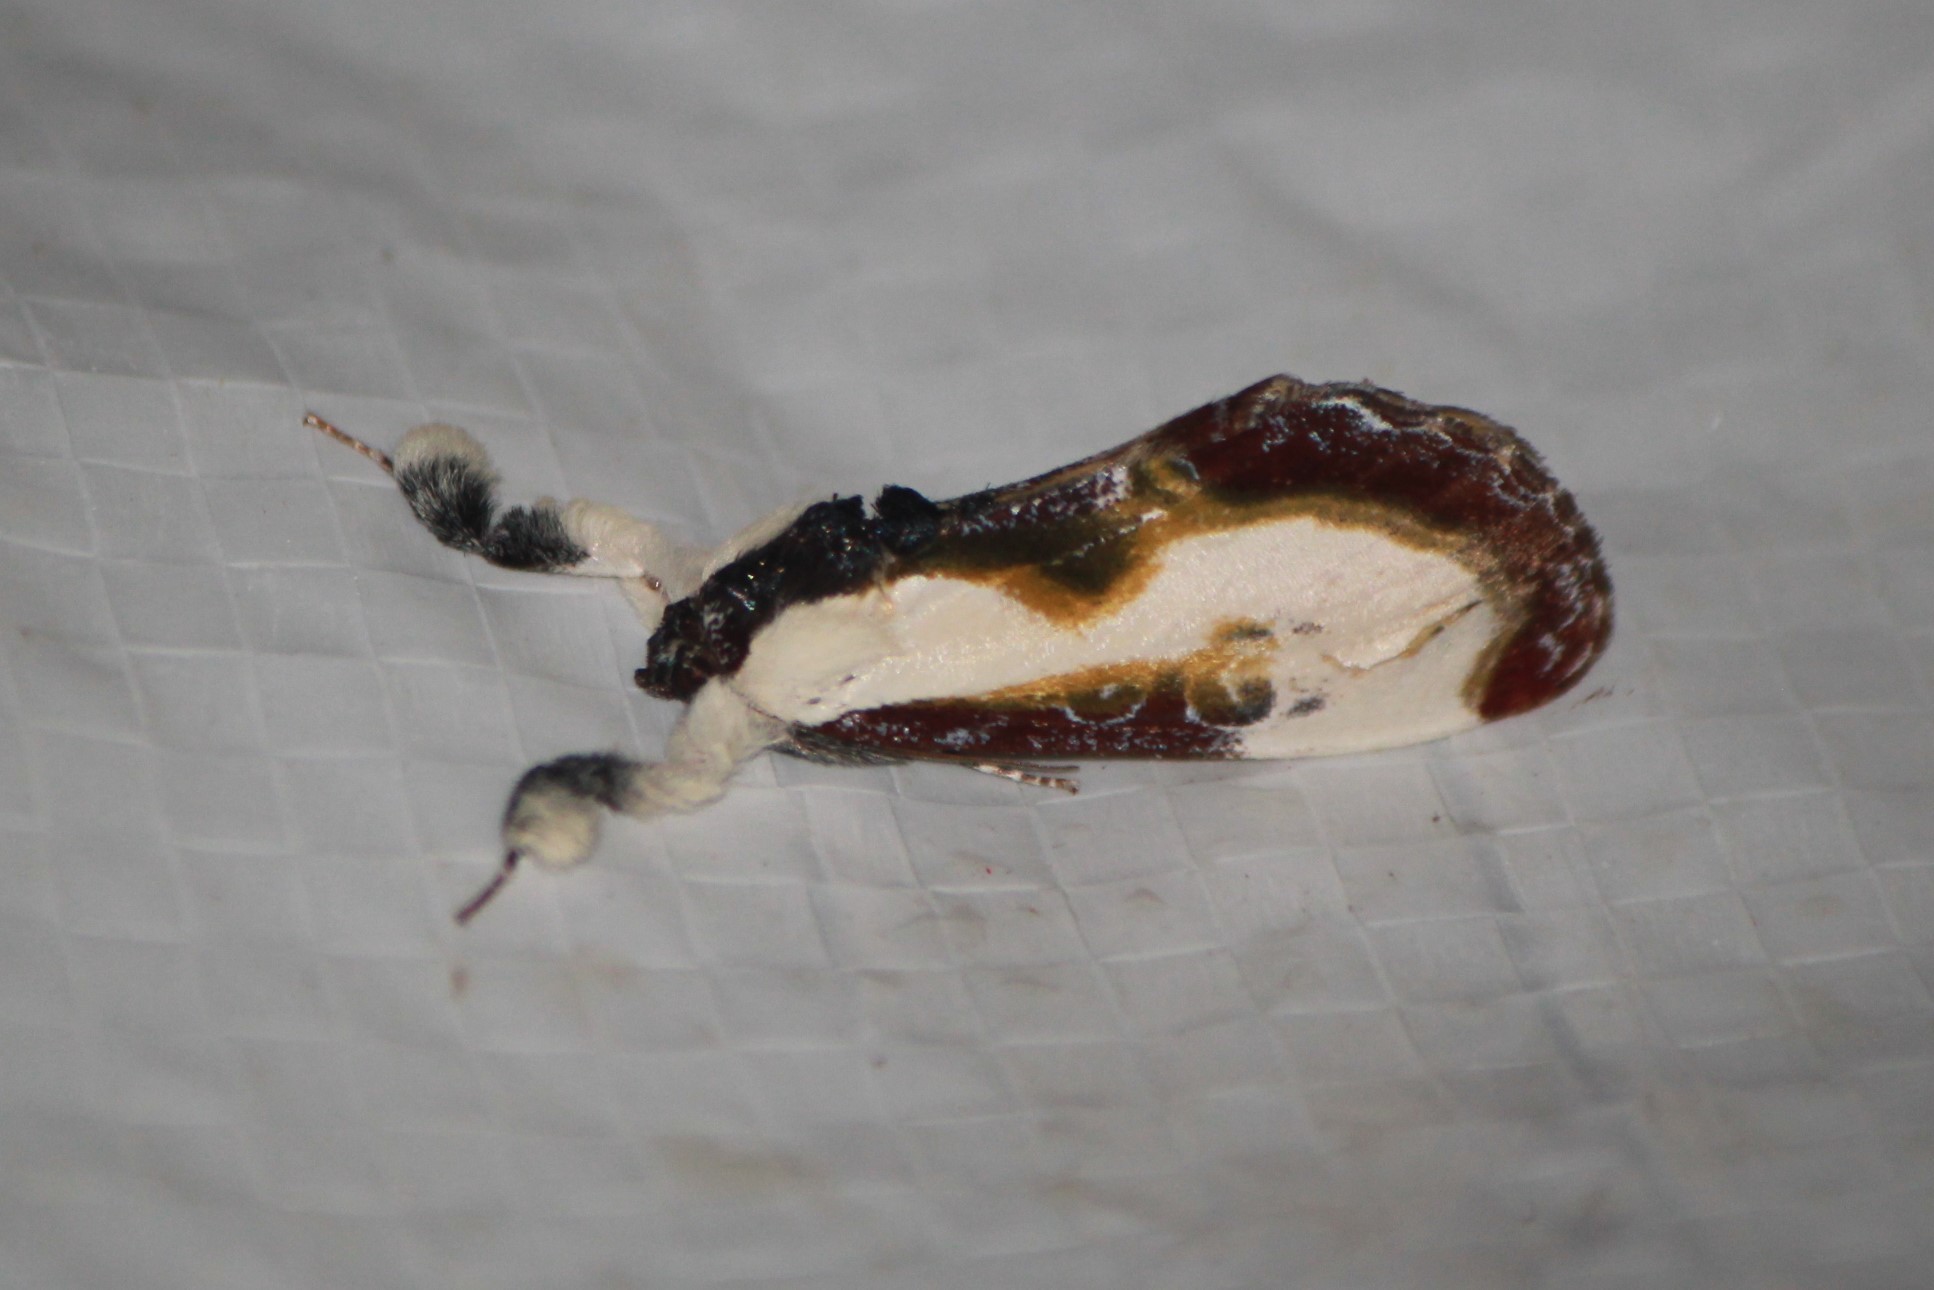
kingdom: Animalia
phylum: Arthropoda
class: Insecta
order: Lepidoptera
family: Noctuidae
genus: Eudryas
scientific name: Eudryas grata
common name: Beautiful wood-nymph
